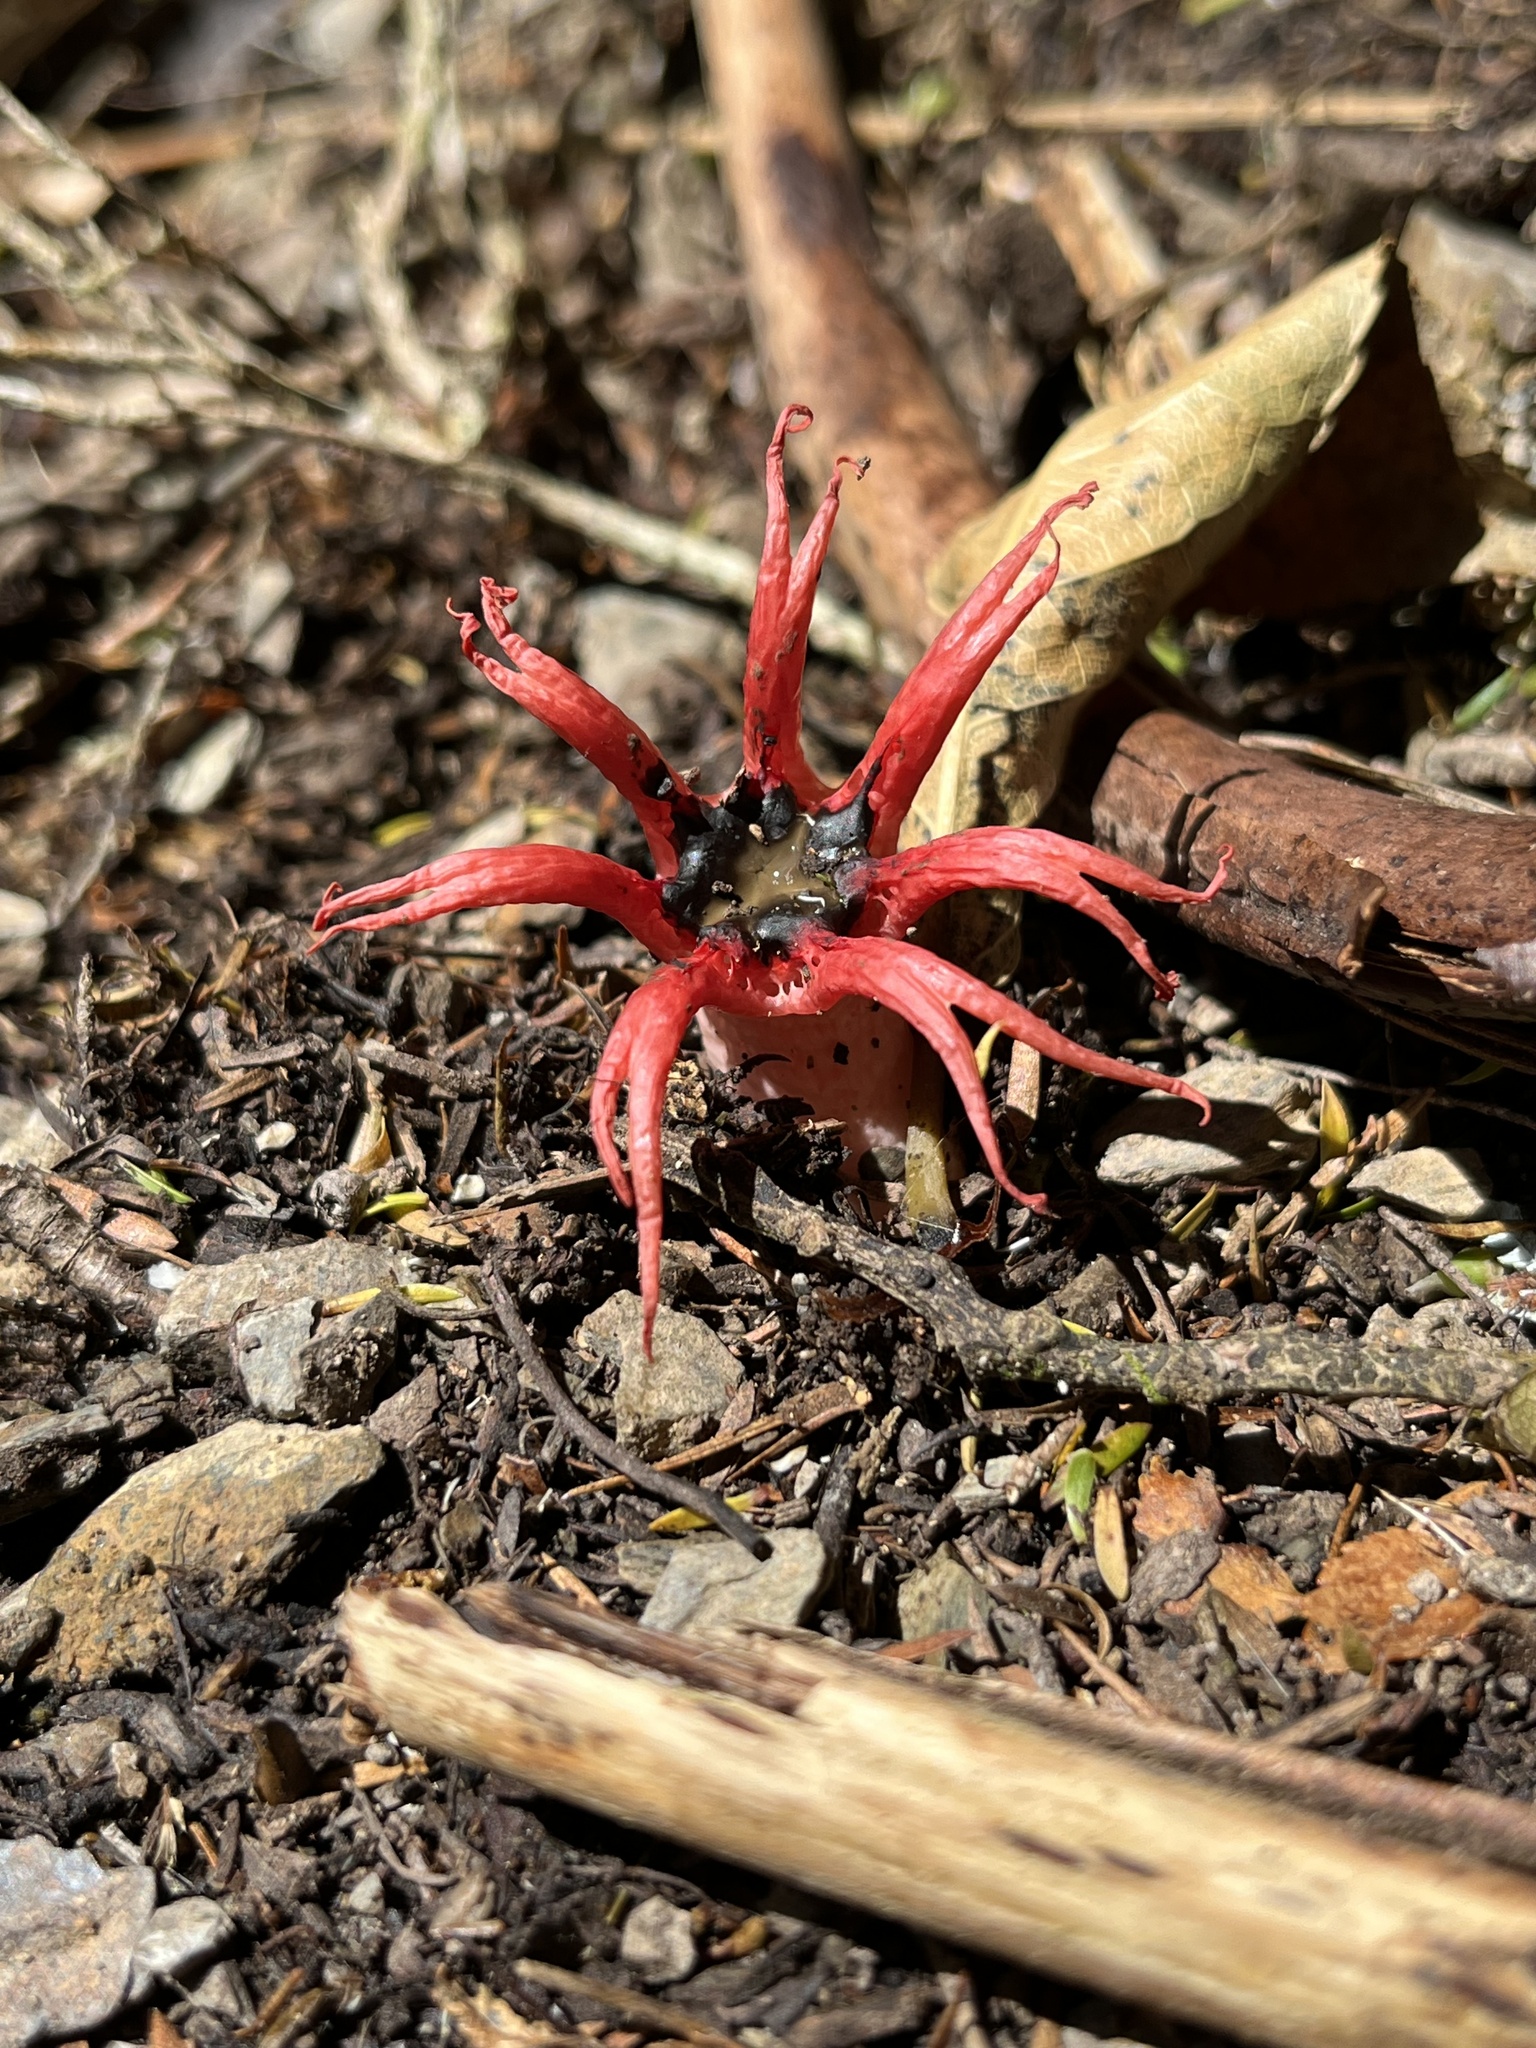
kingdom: Fungi
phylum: Basidiomycota
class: Agaricomycetes
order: Phallales
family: Phallaceae
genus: Aseroe
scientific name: Aseroe rubra
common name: Starfish fungus
